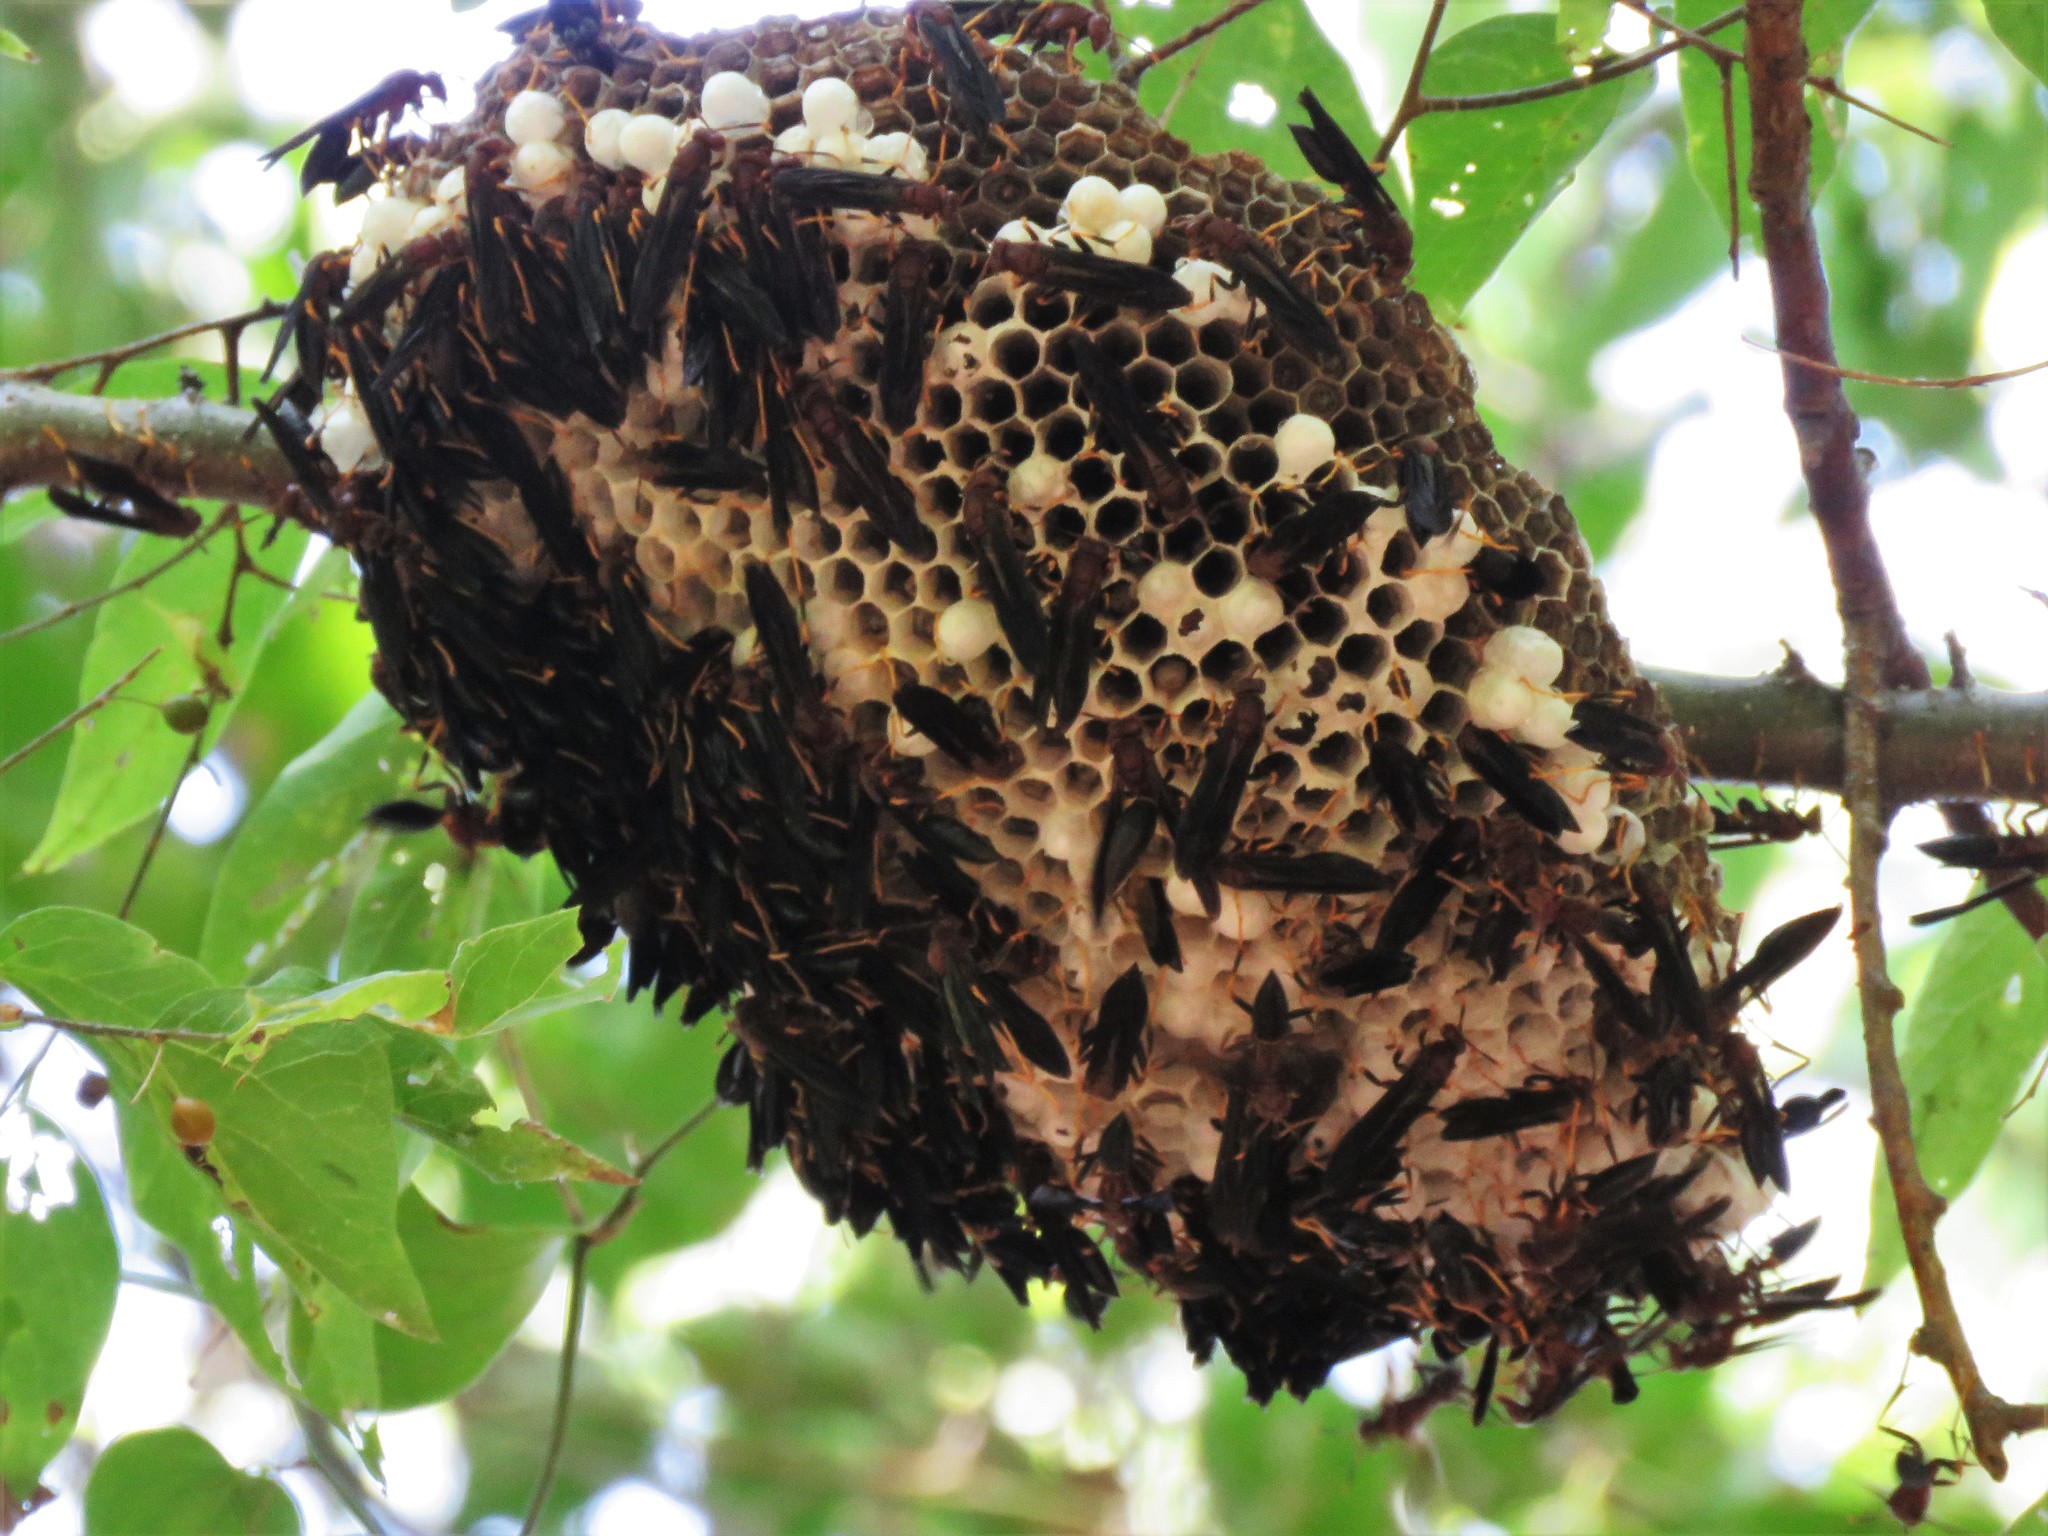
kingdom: Animalia
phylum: Arthropoda
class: Insecta
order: Hymenoptera
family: Eumenidae
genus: Polistes
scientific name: Polistes annularis
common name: Ringed paper wasp
